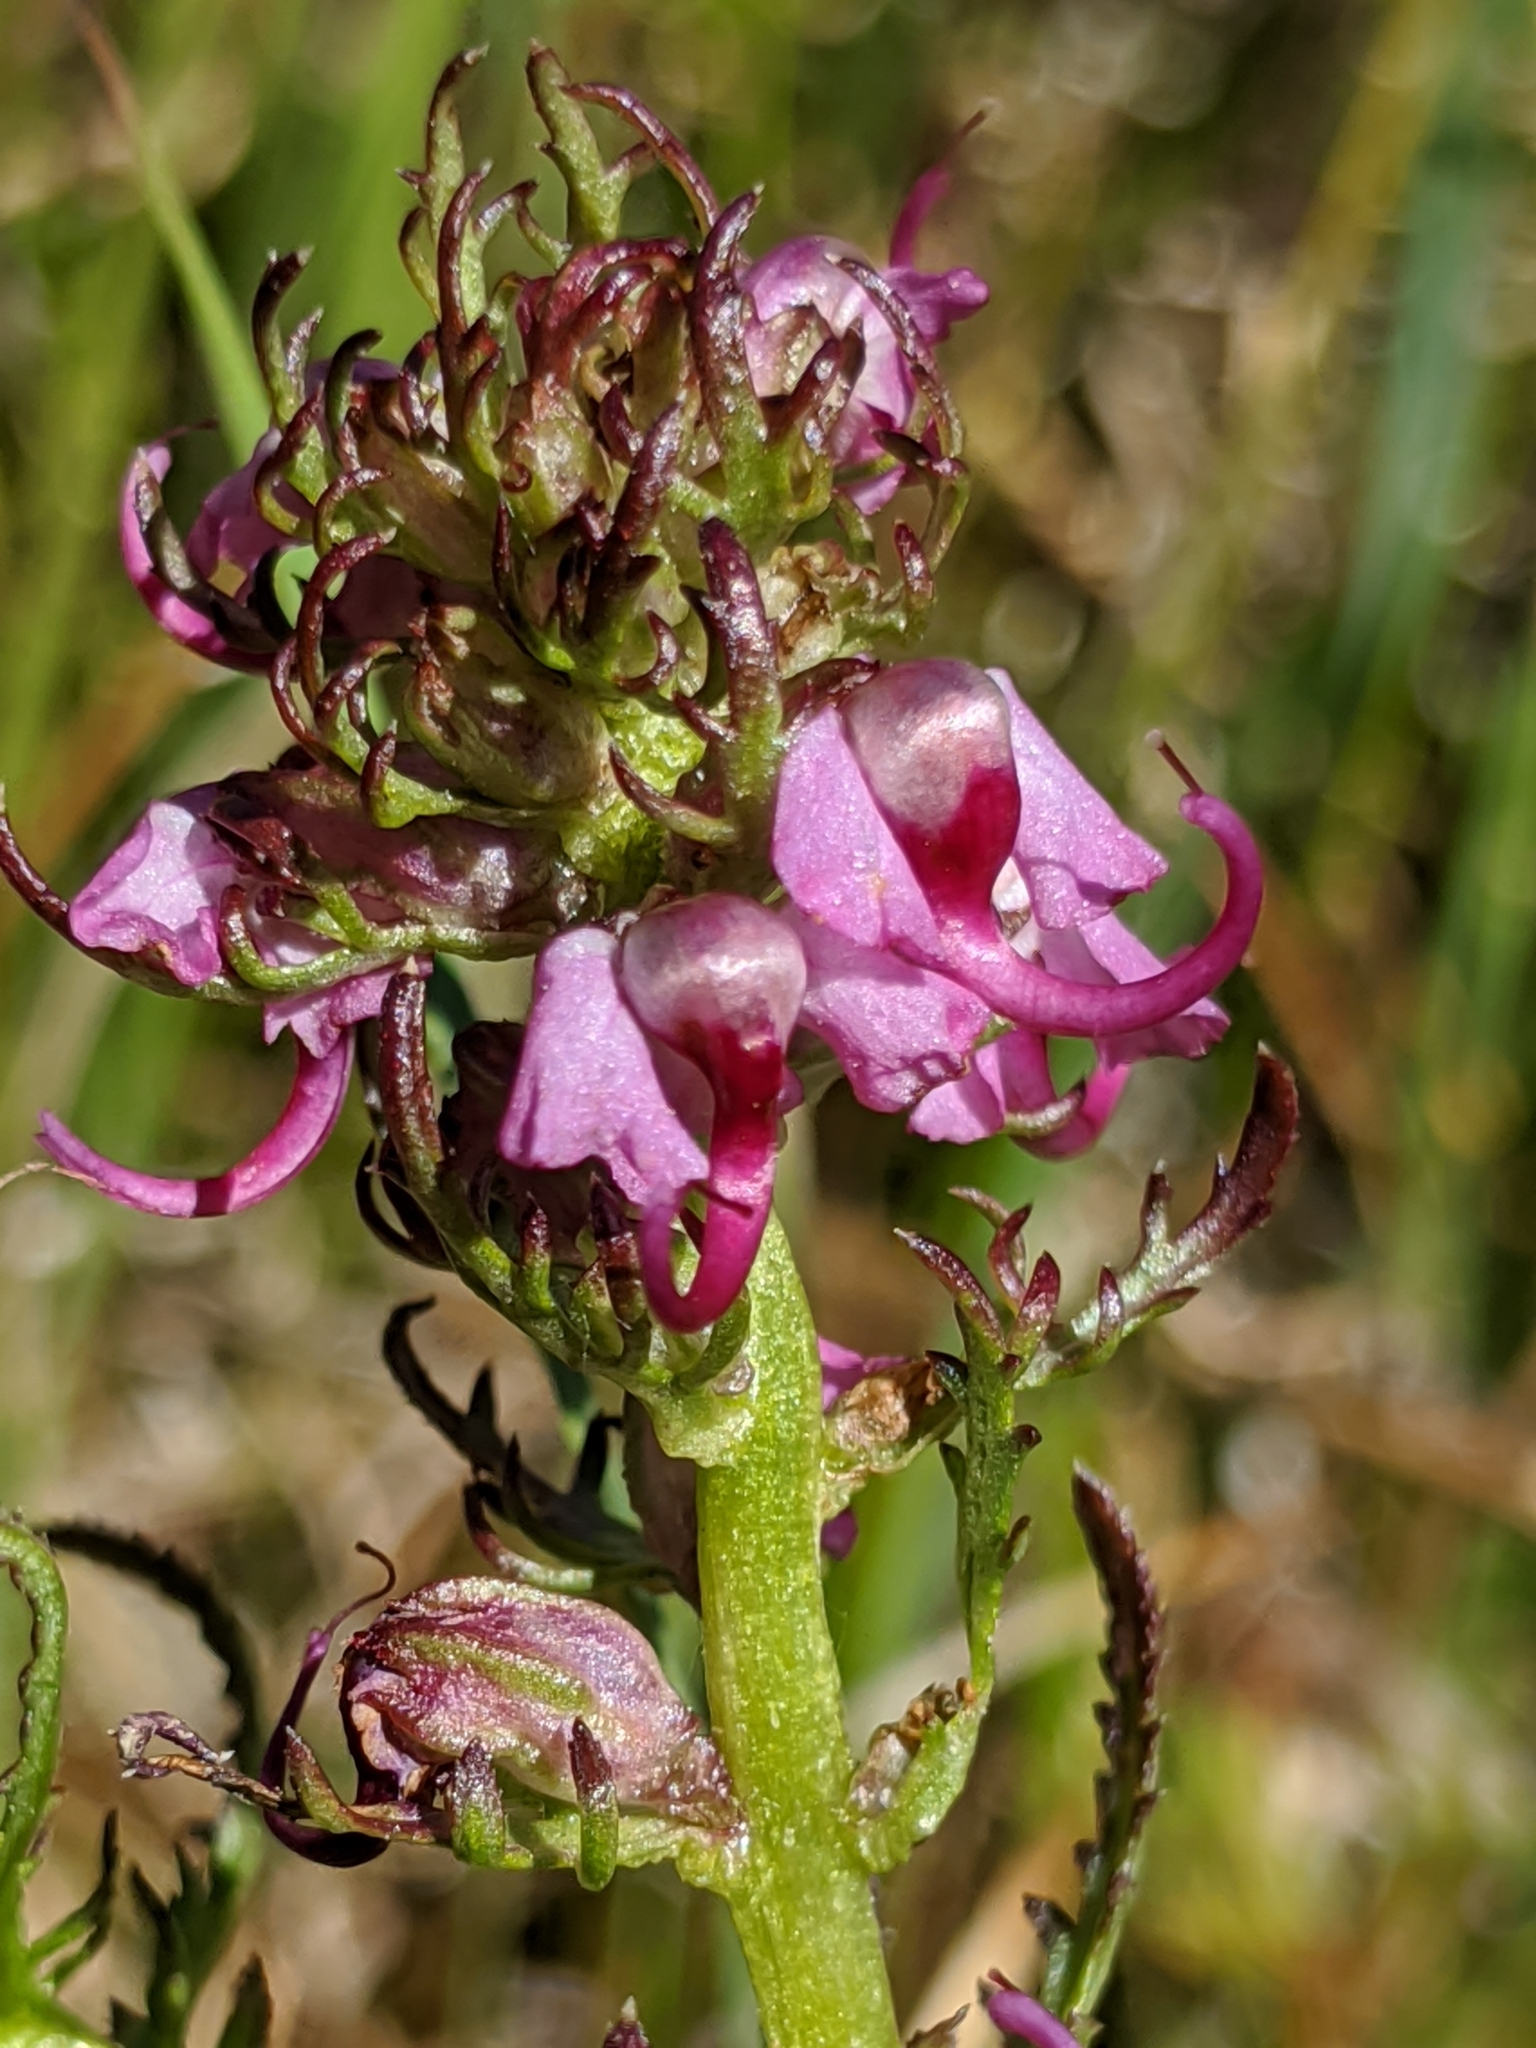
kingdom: Plantae
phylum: Tracheophyta
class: Magnoliopsida
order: Lamiales
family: Orobanchaceae
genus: Pedicularis
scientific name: Pedicularis groenlandica
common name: Elephant's-head
